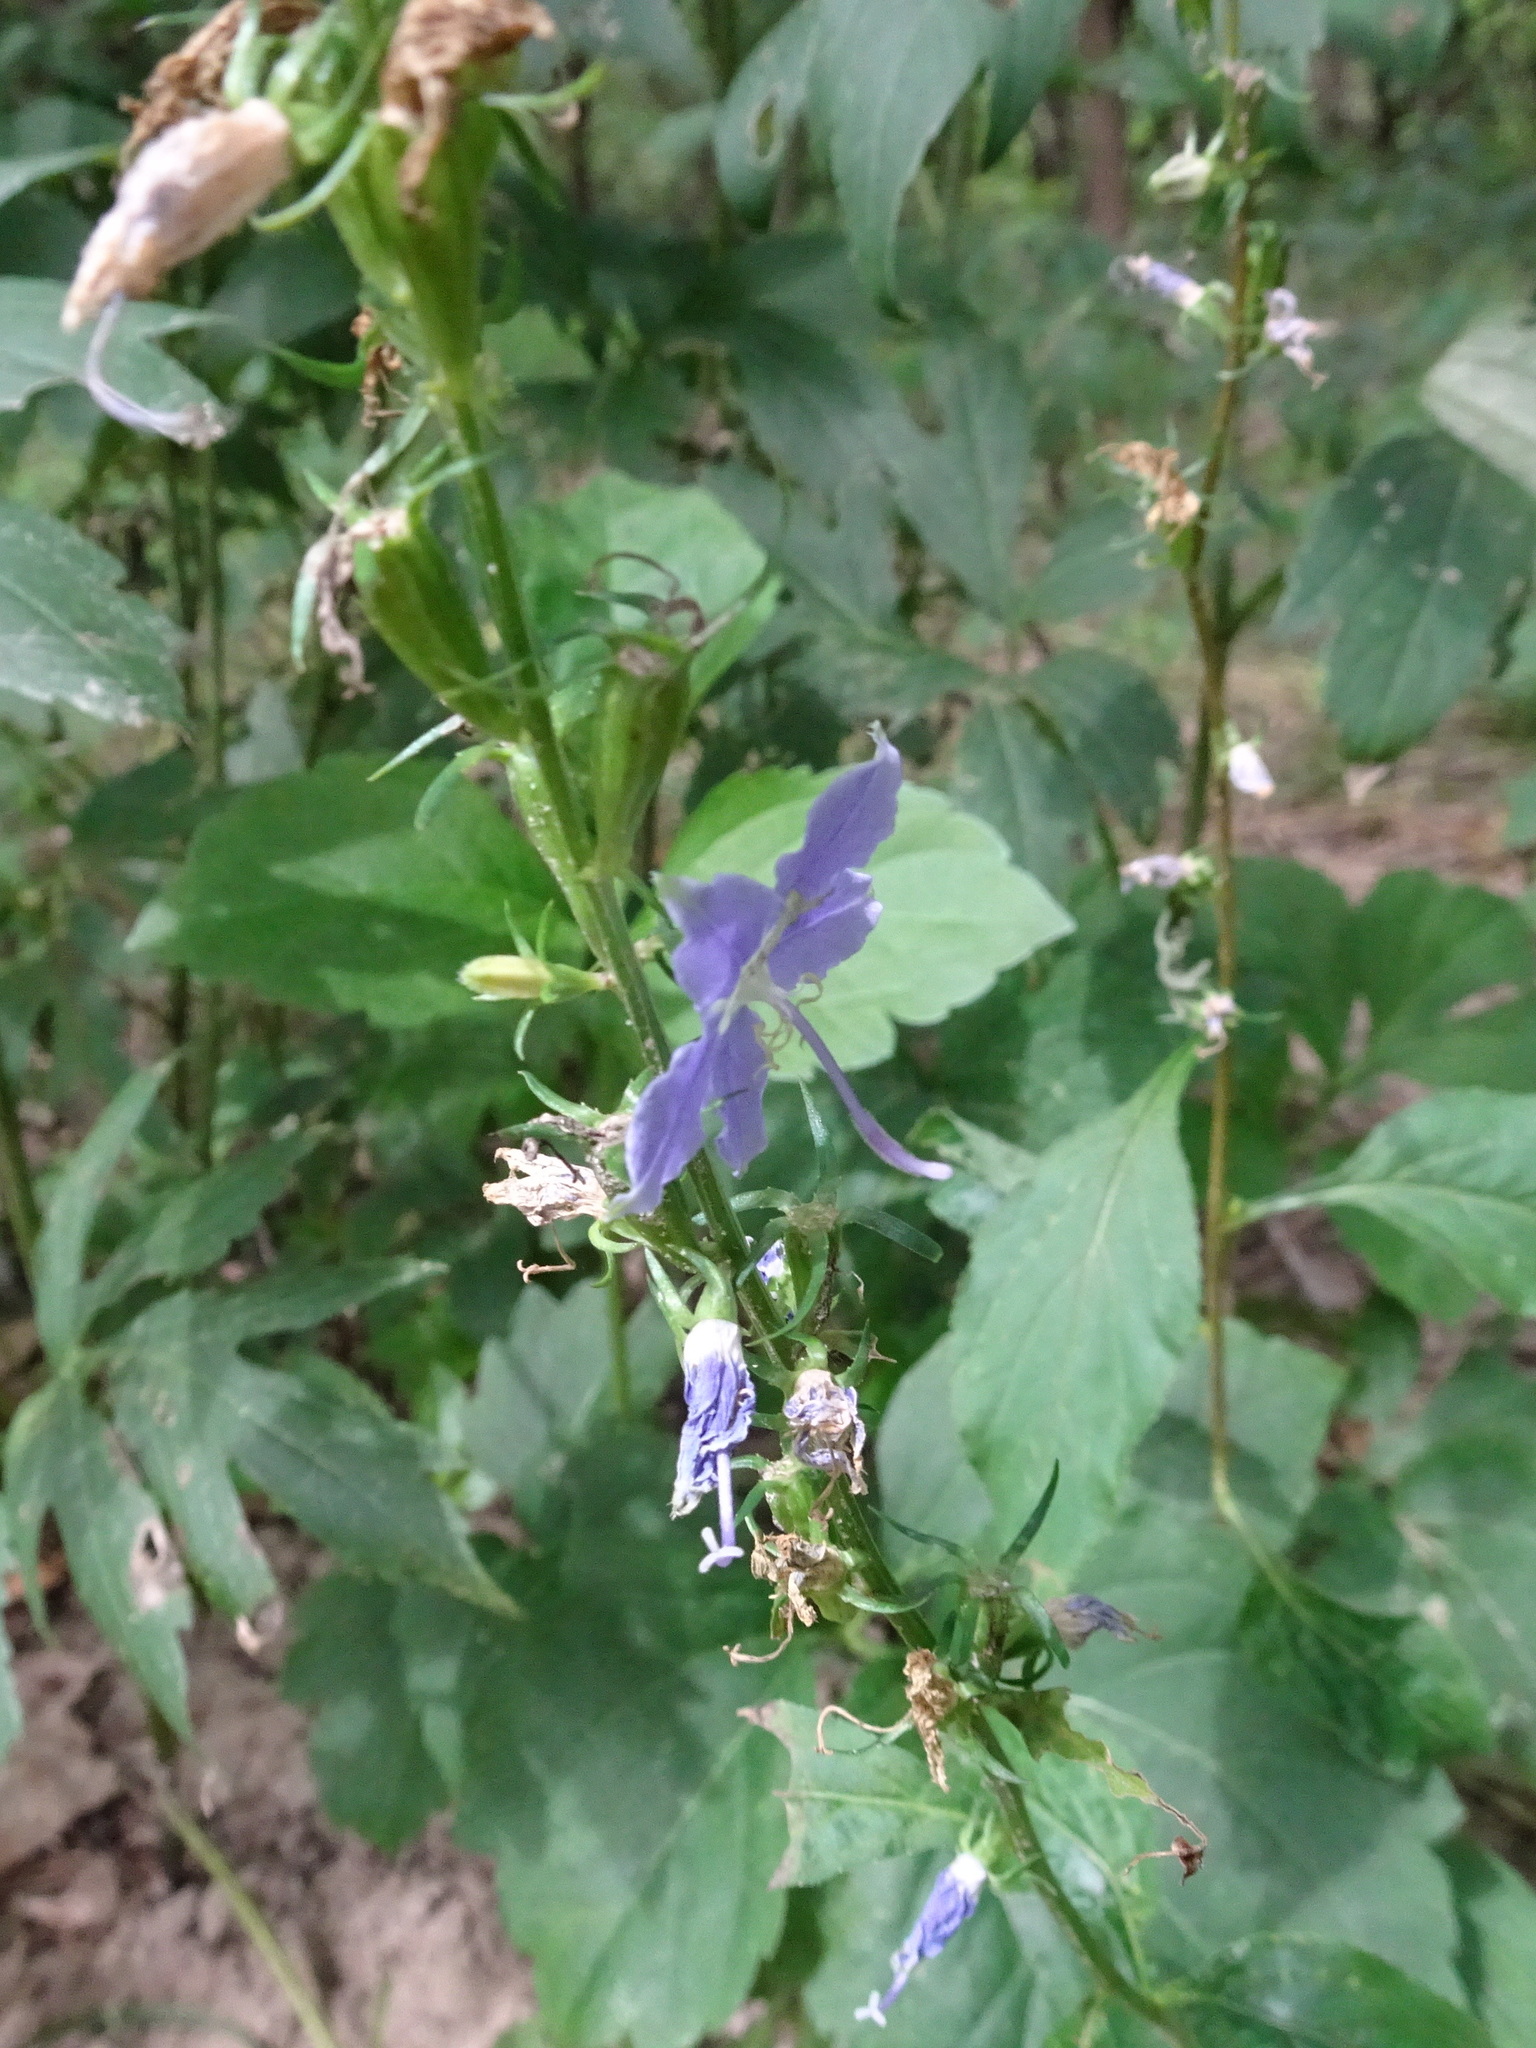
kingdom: Plantae
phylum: Tracheophyta
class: Magnoliopsida
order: Asterales
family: Campanulaceae
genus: Campanulastrum
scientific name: Campanulastrum americanum
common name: American bellflower
